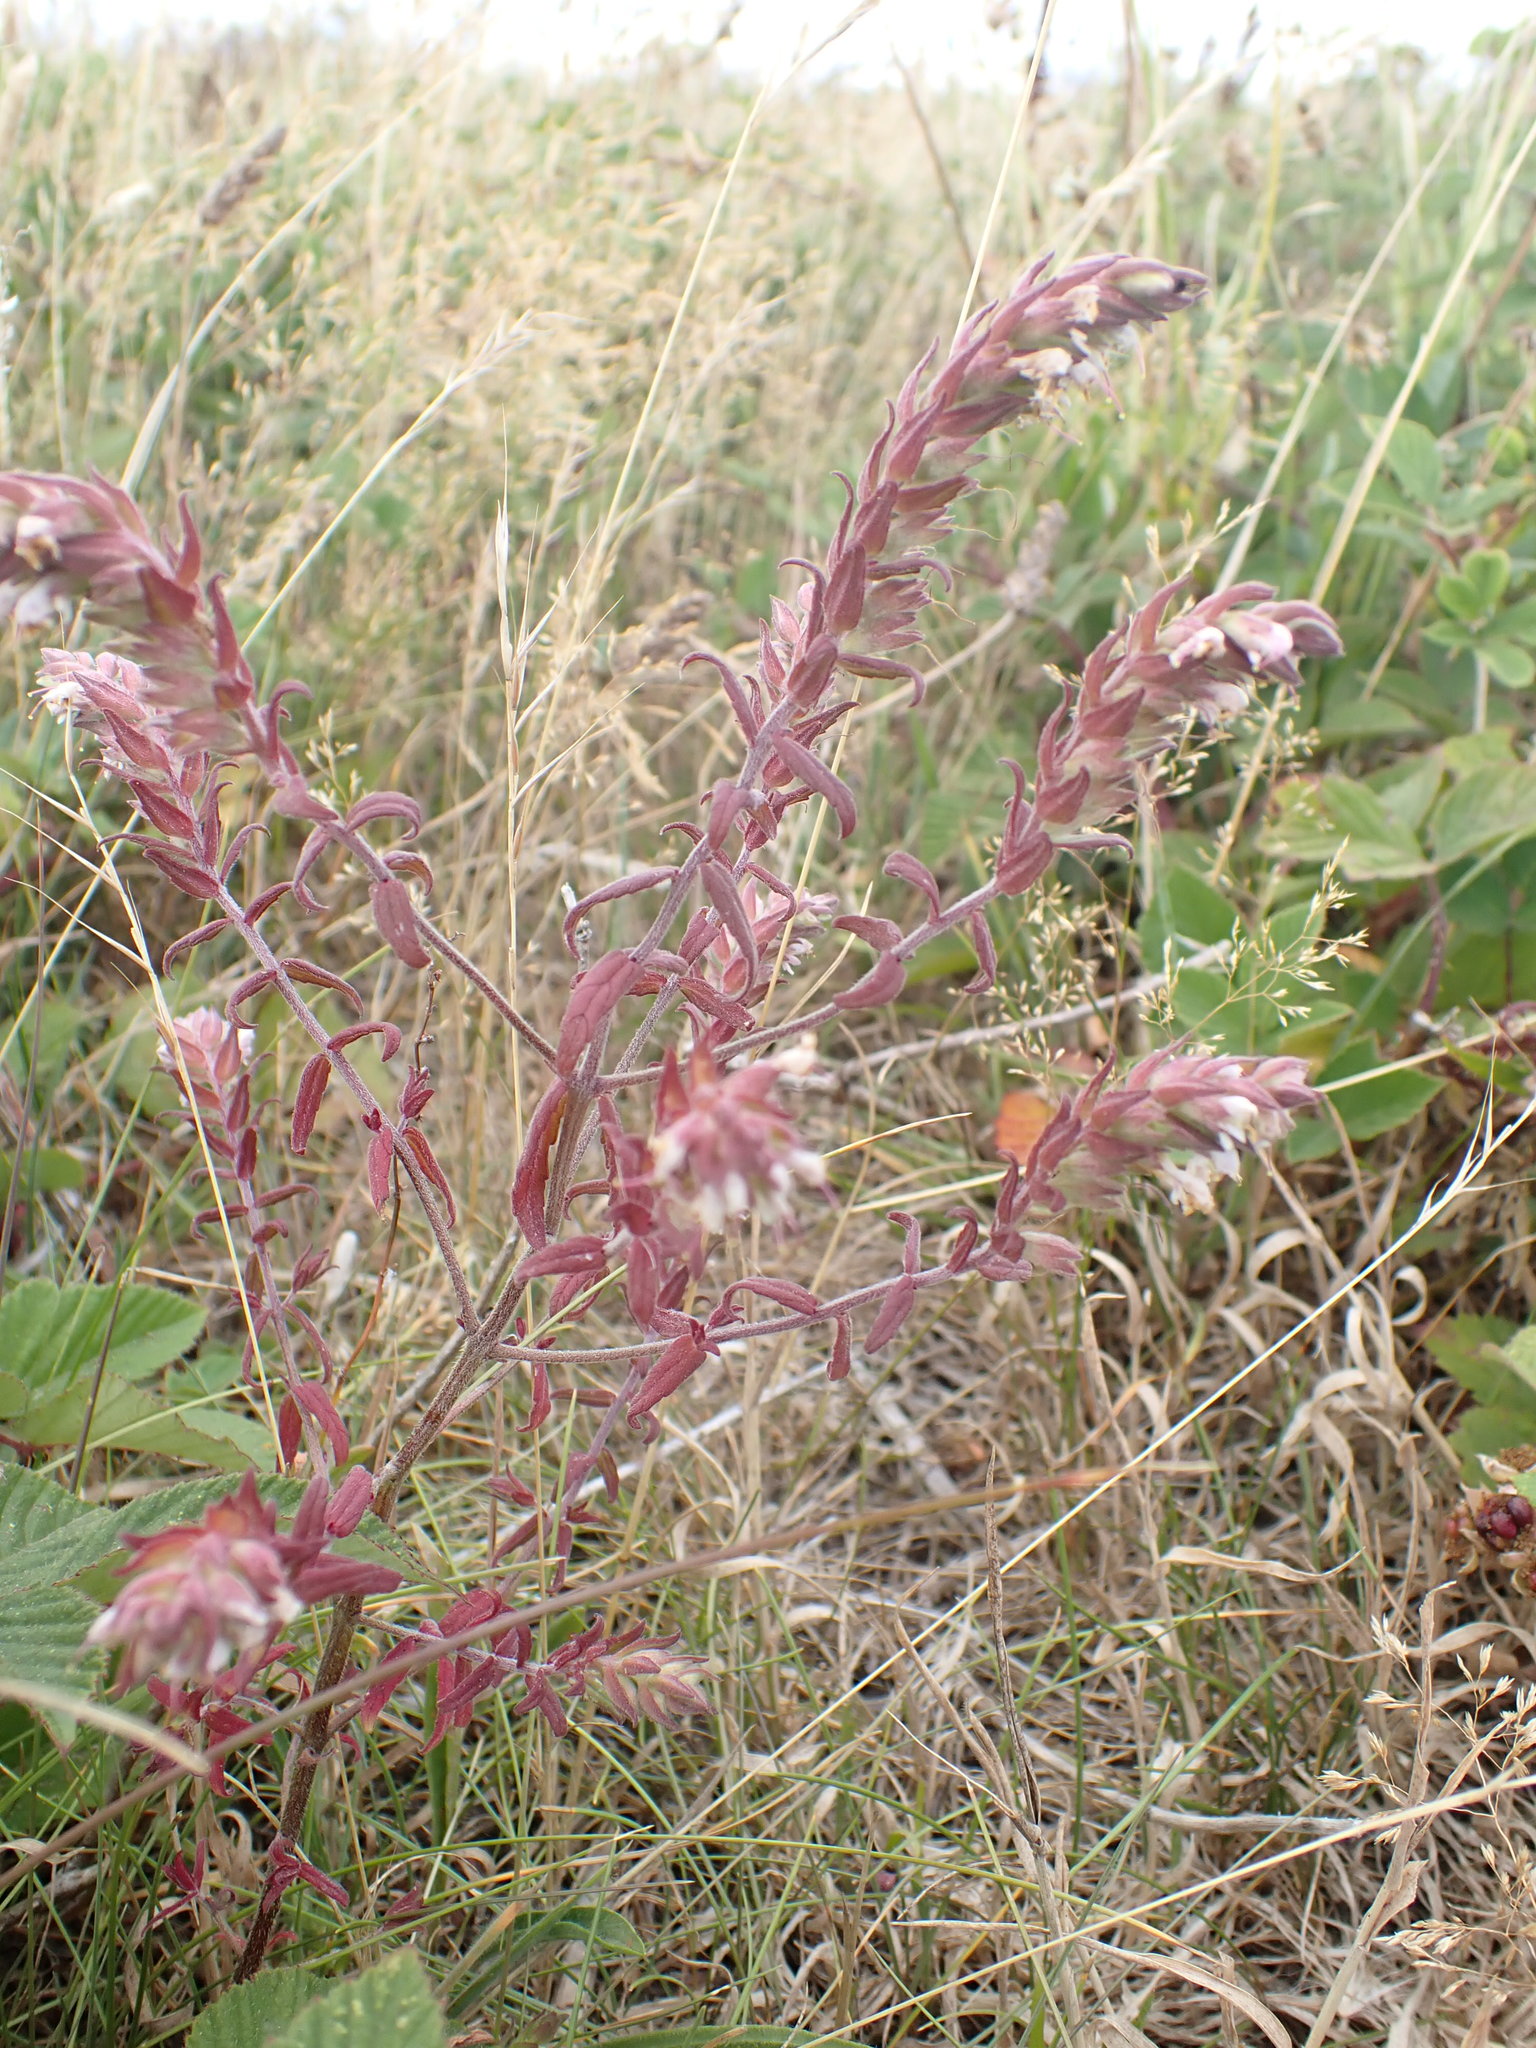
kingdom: Plantae
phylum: Tracheophyta
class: Magnoliopsida
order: Lamiales
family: Orobanchaceae
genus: Odontites
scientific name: Odontites vulgaris
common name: Broomrape
